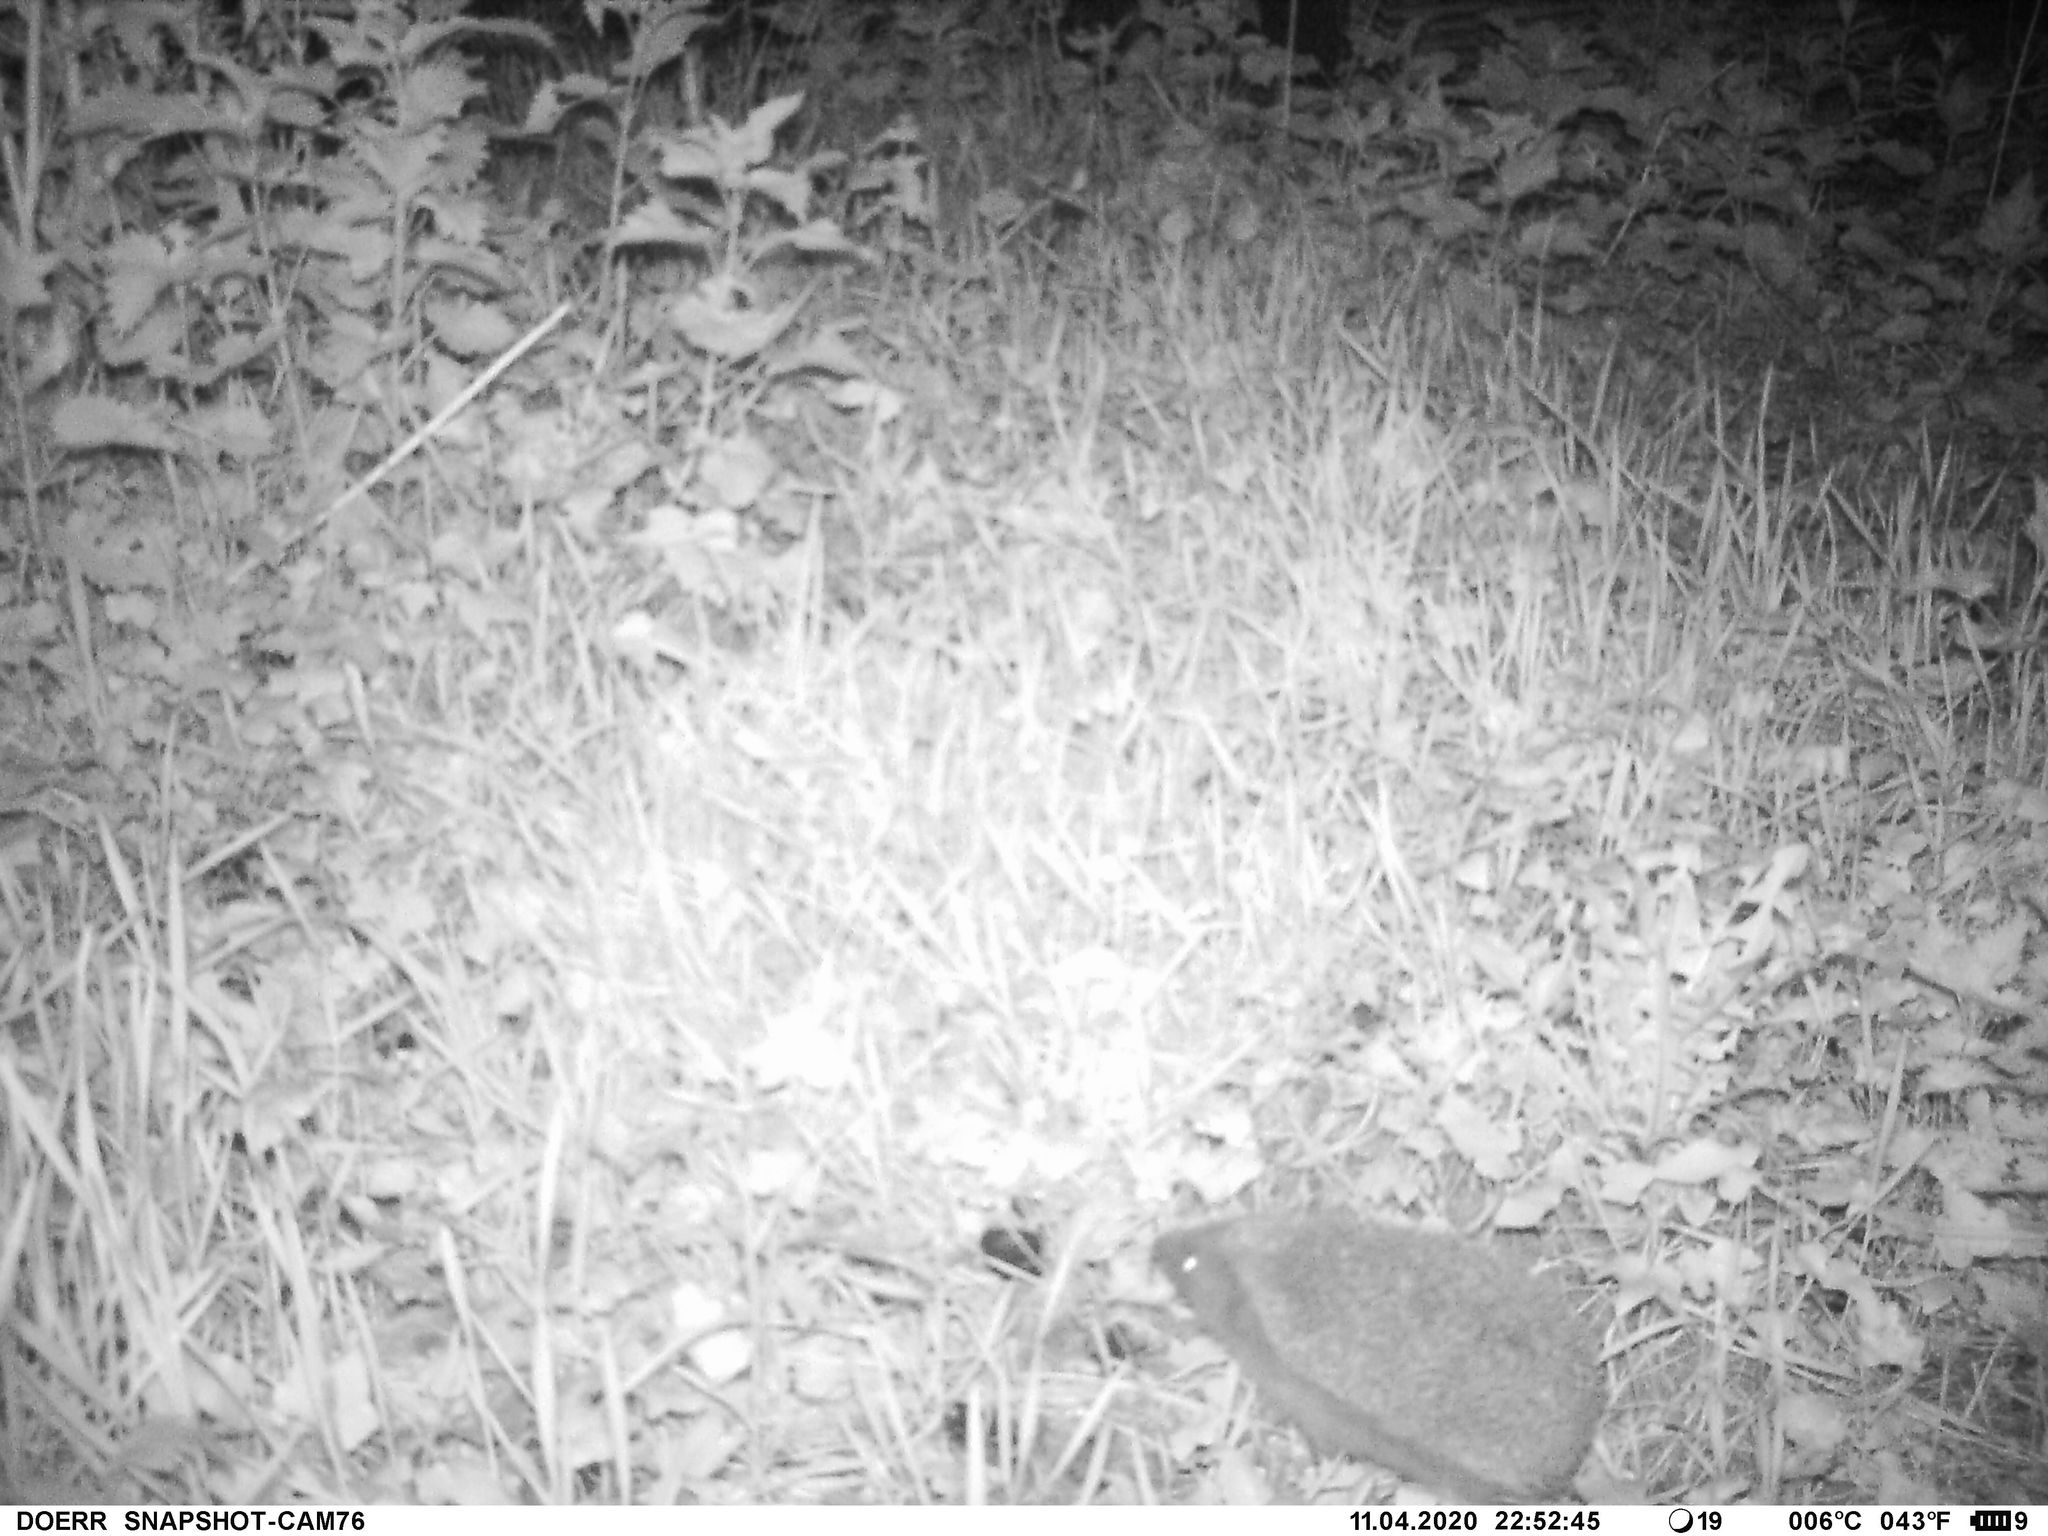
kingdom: Animalia
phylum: Chordata
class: Mammalia
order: Erinaceomorpha
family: Erinaceidae
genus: Erinaceus
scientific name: Erinaceus europaeus
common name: West european hedgehog
